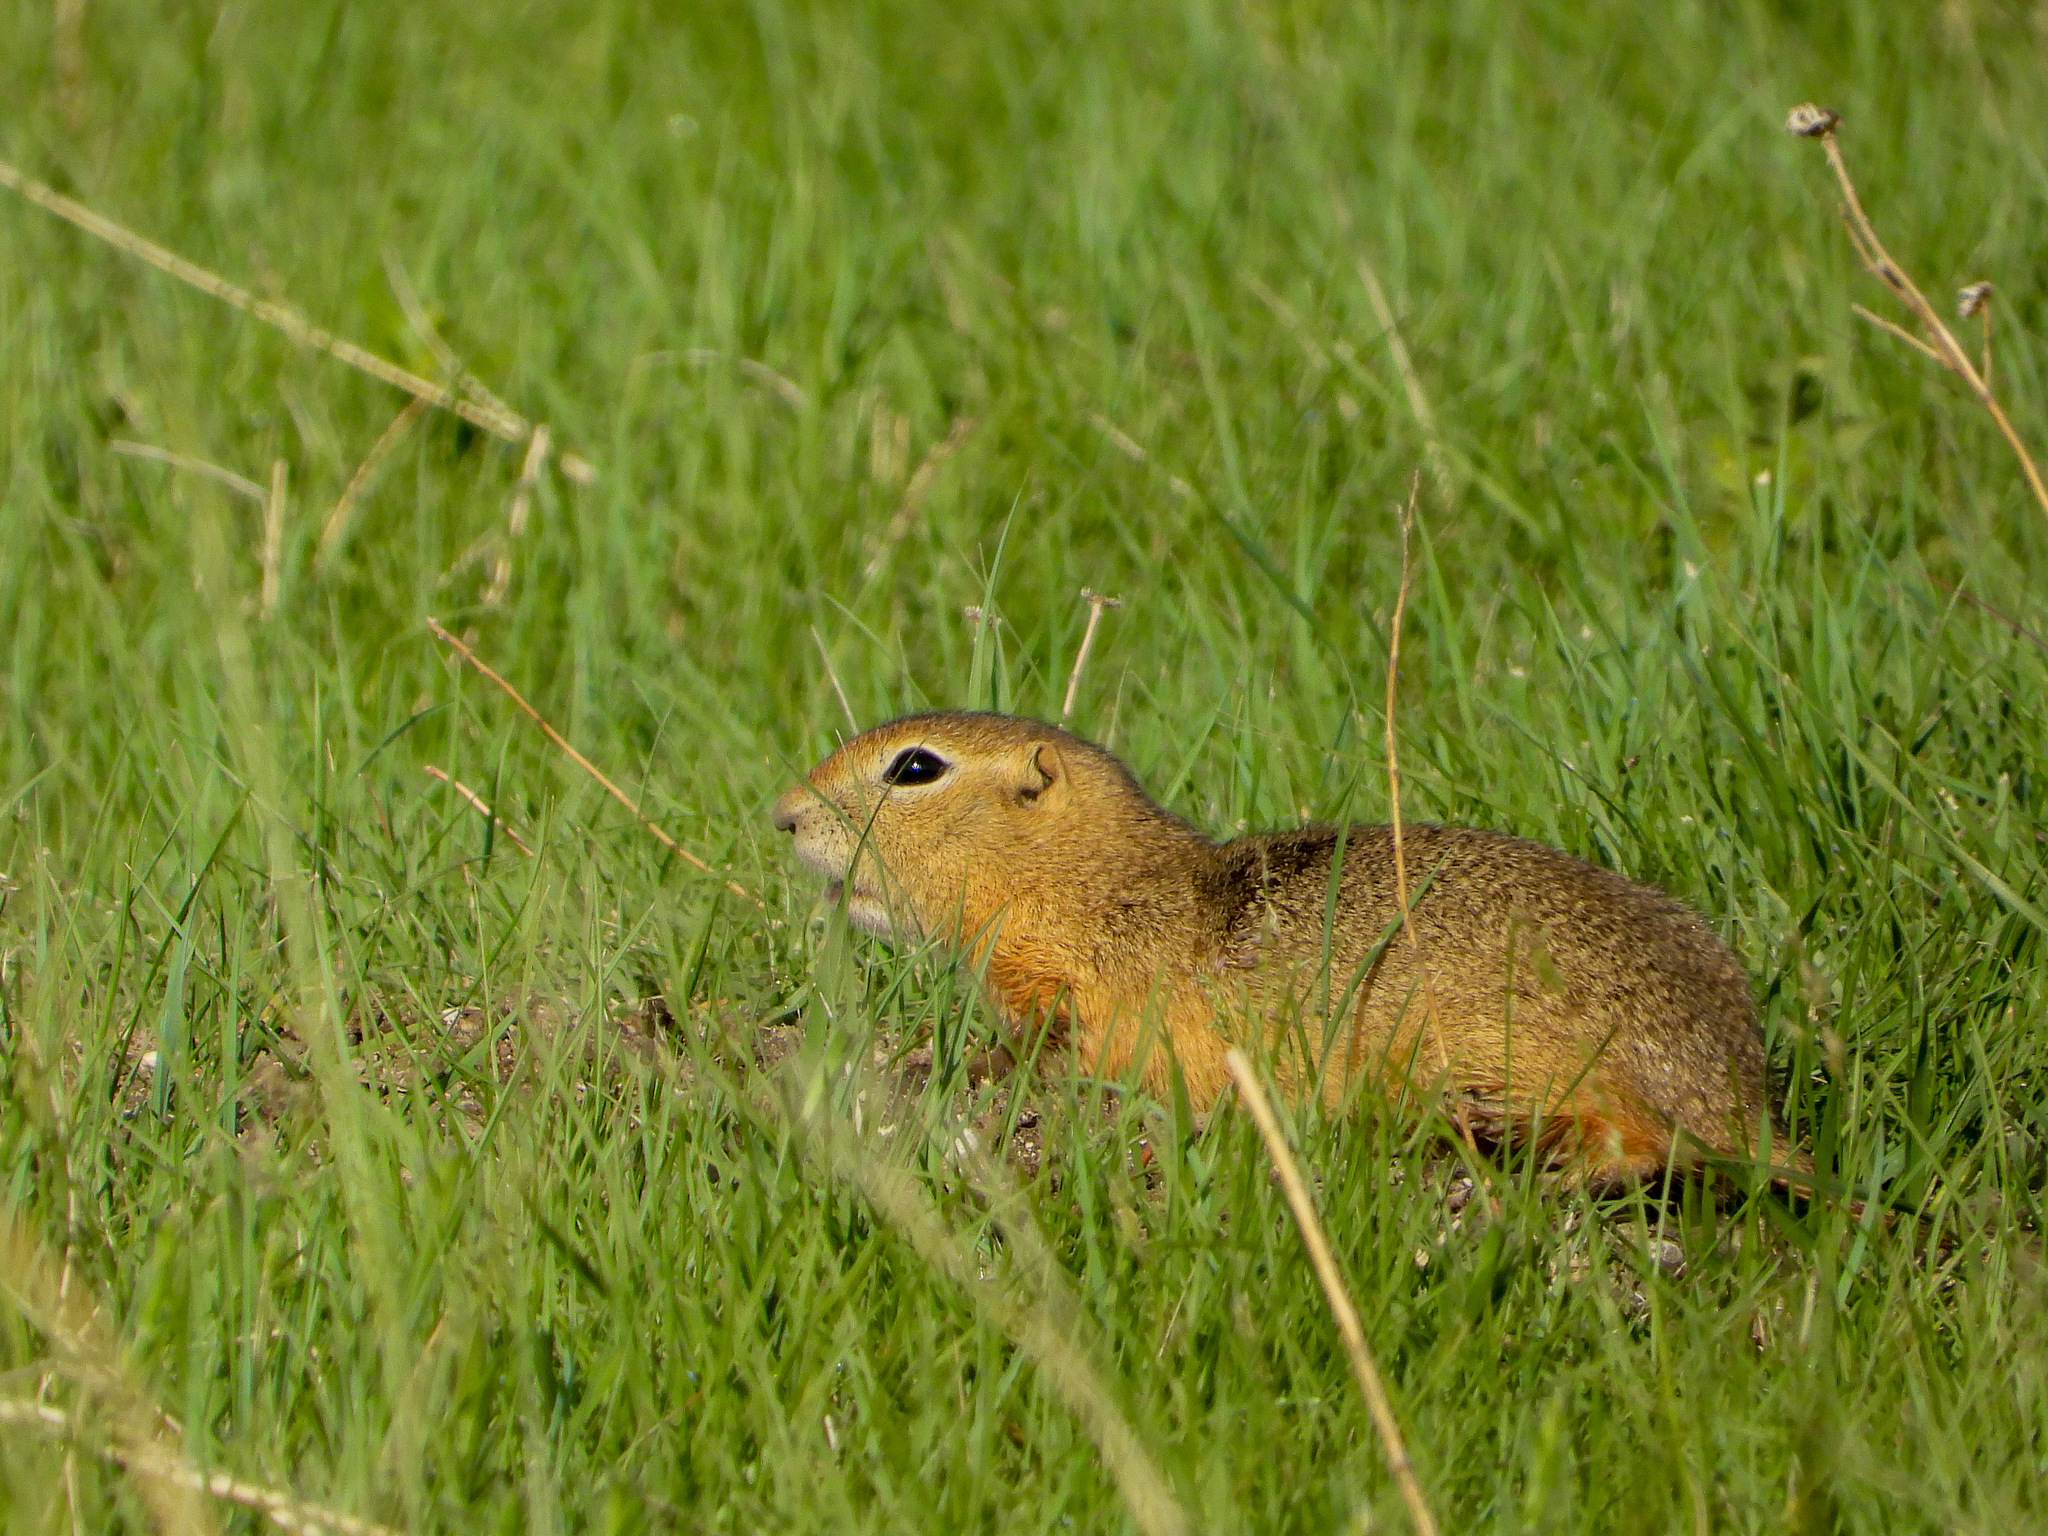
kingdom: Animalia
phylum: Chordata
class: Mammalia
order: Rodentia
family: Sciuridae
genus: Urocitellus
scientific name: Urocitellus richardsonii
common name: Richardson's ground squirrel
